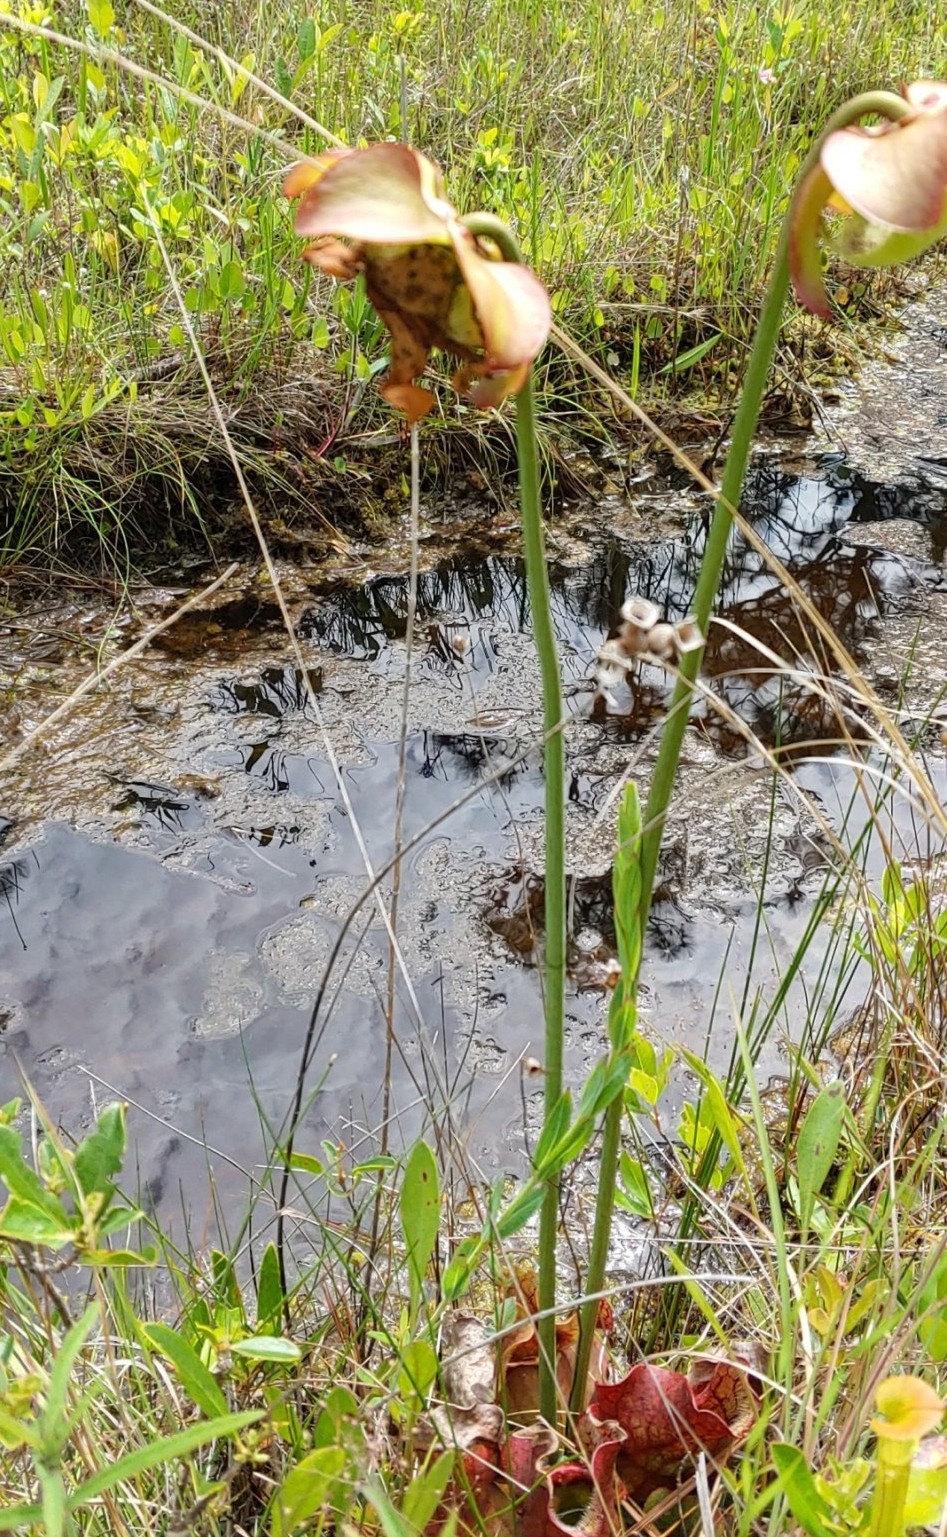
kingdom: Plantae
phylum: Tracheophyta
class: Magnoliopsida
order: Ericales
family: Sarraceniaceae
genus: Sarracenia
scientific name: Sarracenia purpurea
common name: Pitcherplant
